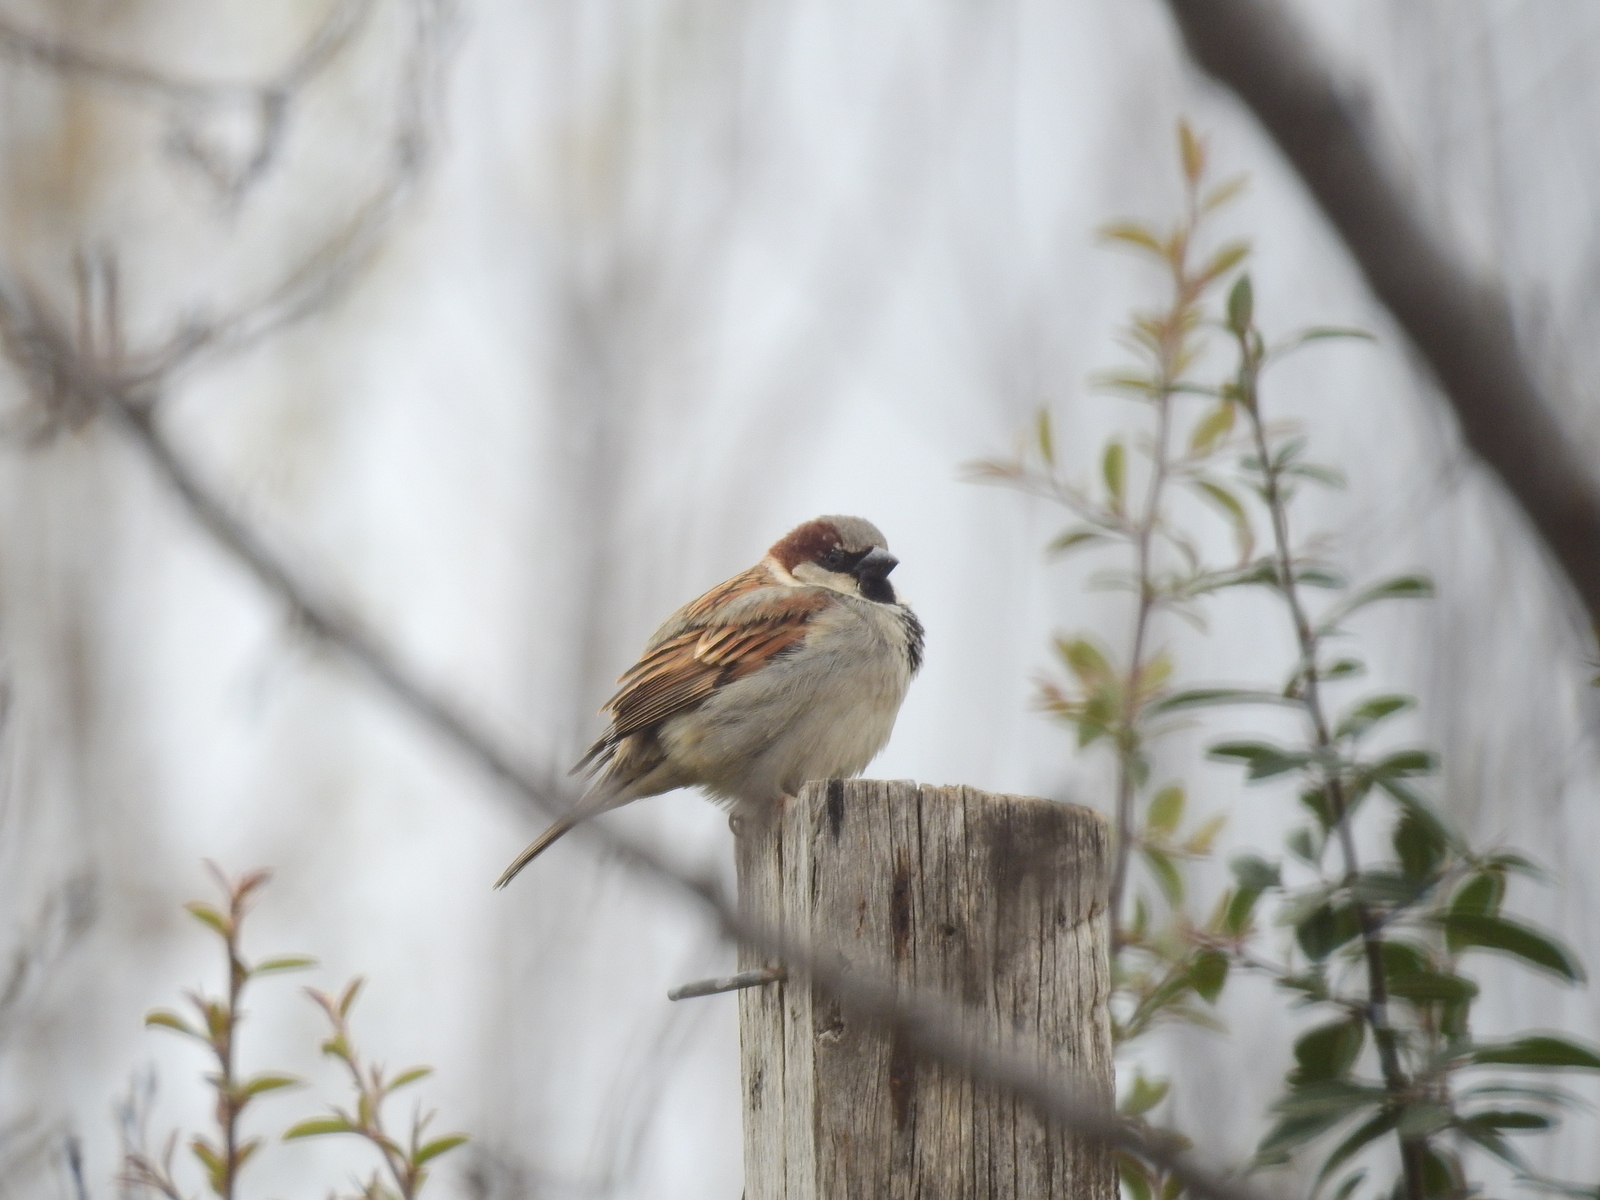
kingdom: Animalia
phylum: Chordata
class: Aves
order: Passeriformes
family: Passeridae
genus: Passer
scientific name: Passer domesticus
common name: House sparrow
